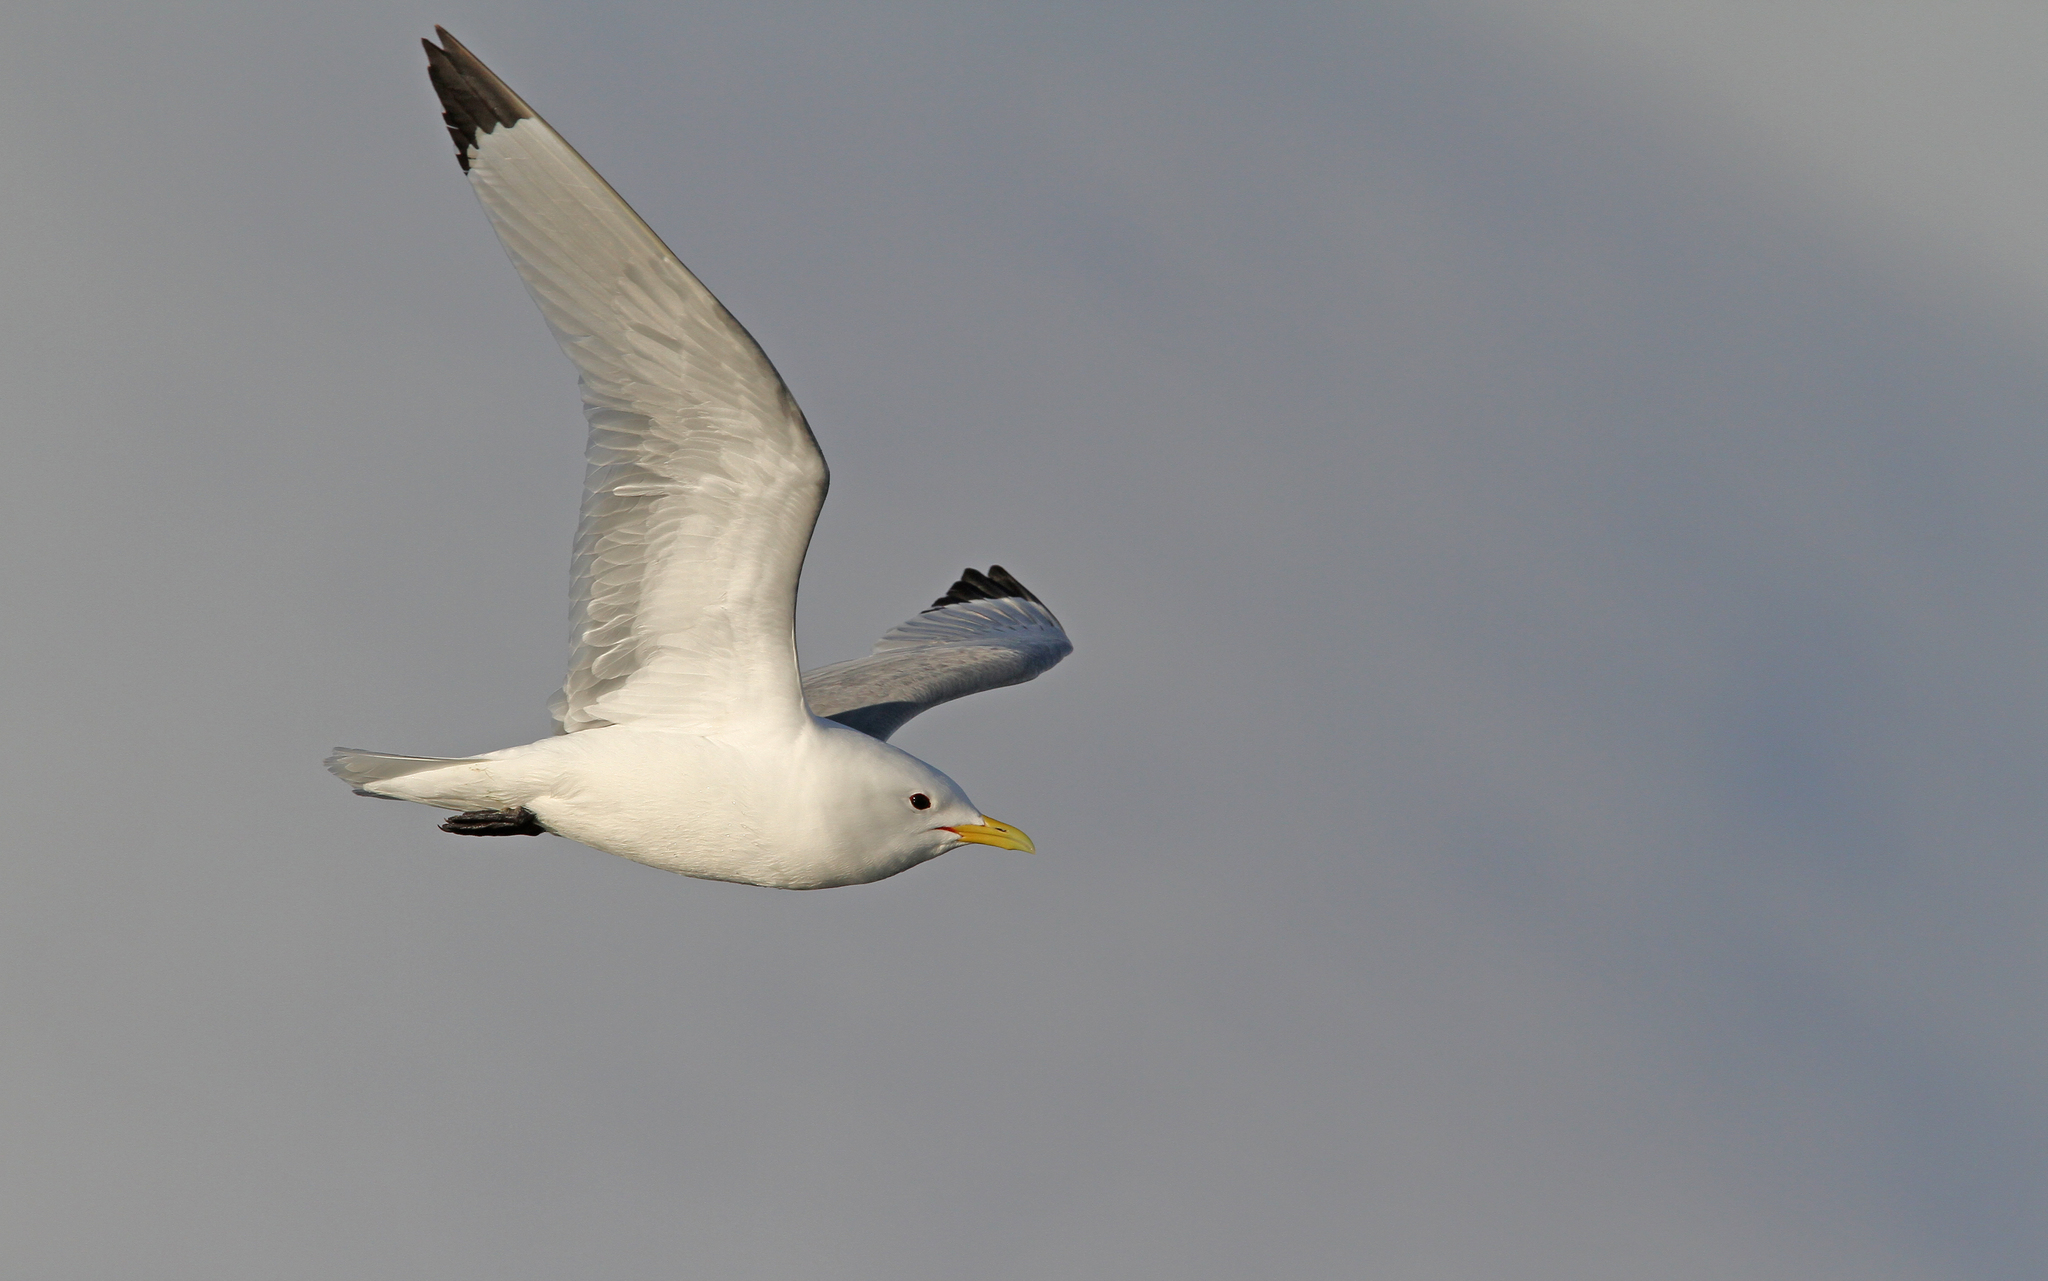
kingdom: Animalia
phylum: Chordata
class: Aves
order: Charadriiformes
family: Laridae
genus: Rissa
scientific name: Rissa tridactyla
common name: Black-legged kittiwake
